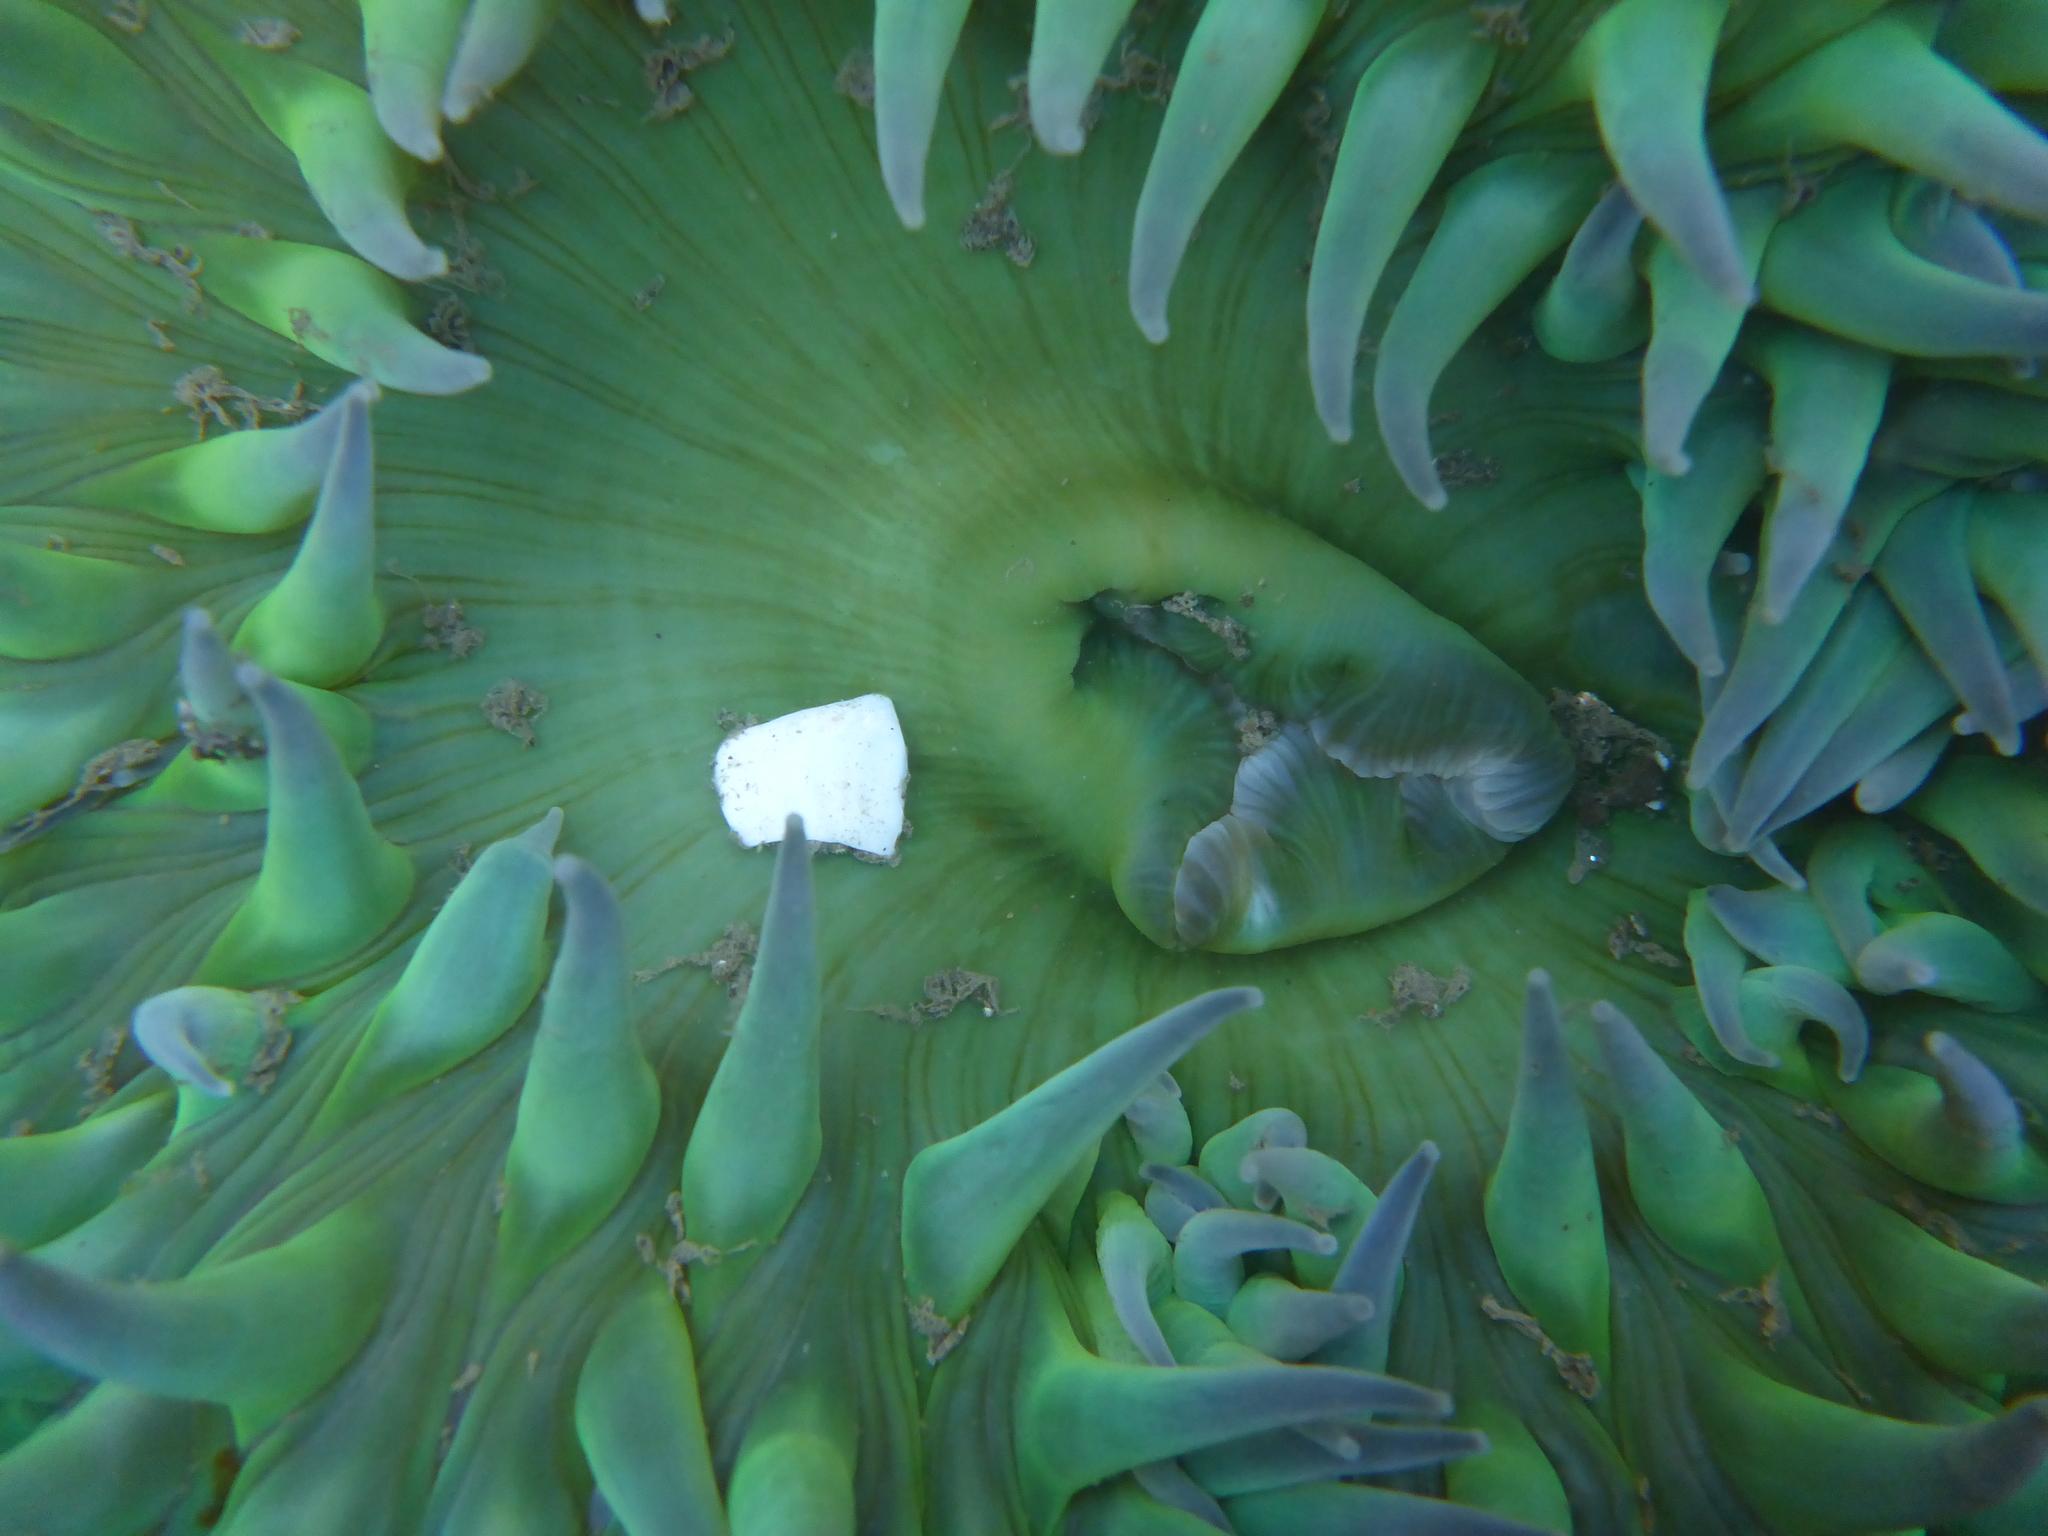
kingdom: Animalia
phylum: Cnidaria
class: Anthozoa
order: Actiniaria
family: Actiniidae
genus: Anthopleura
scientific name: Anthopleura xanthogrammica
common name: Giant green anemone
